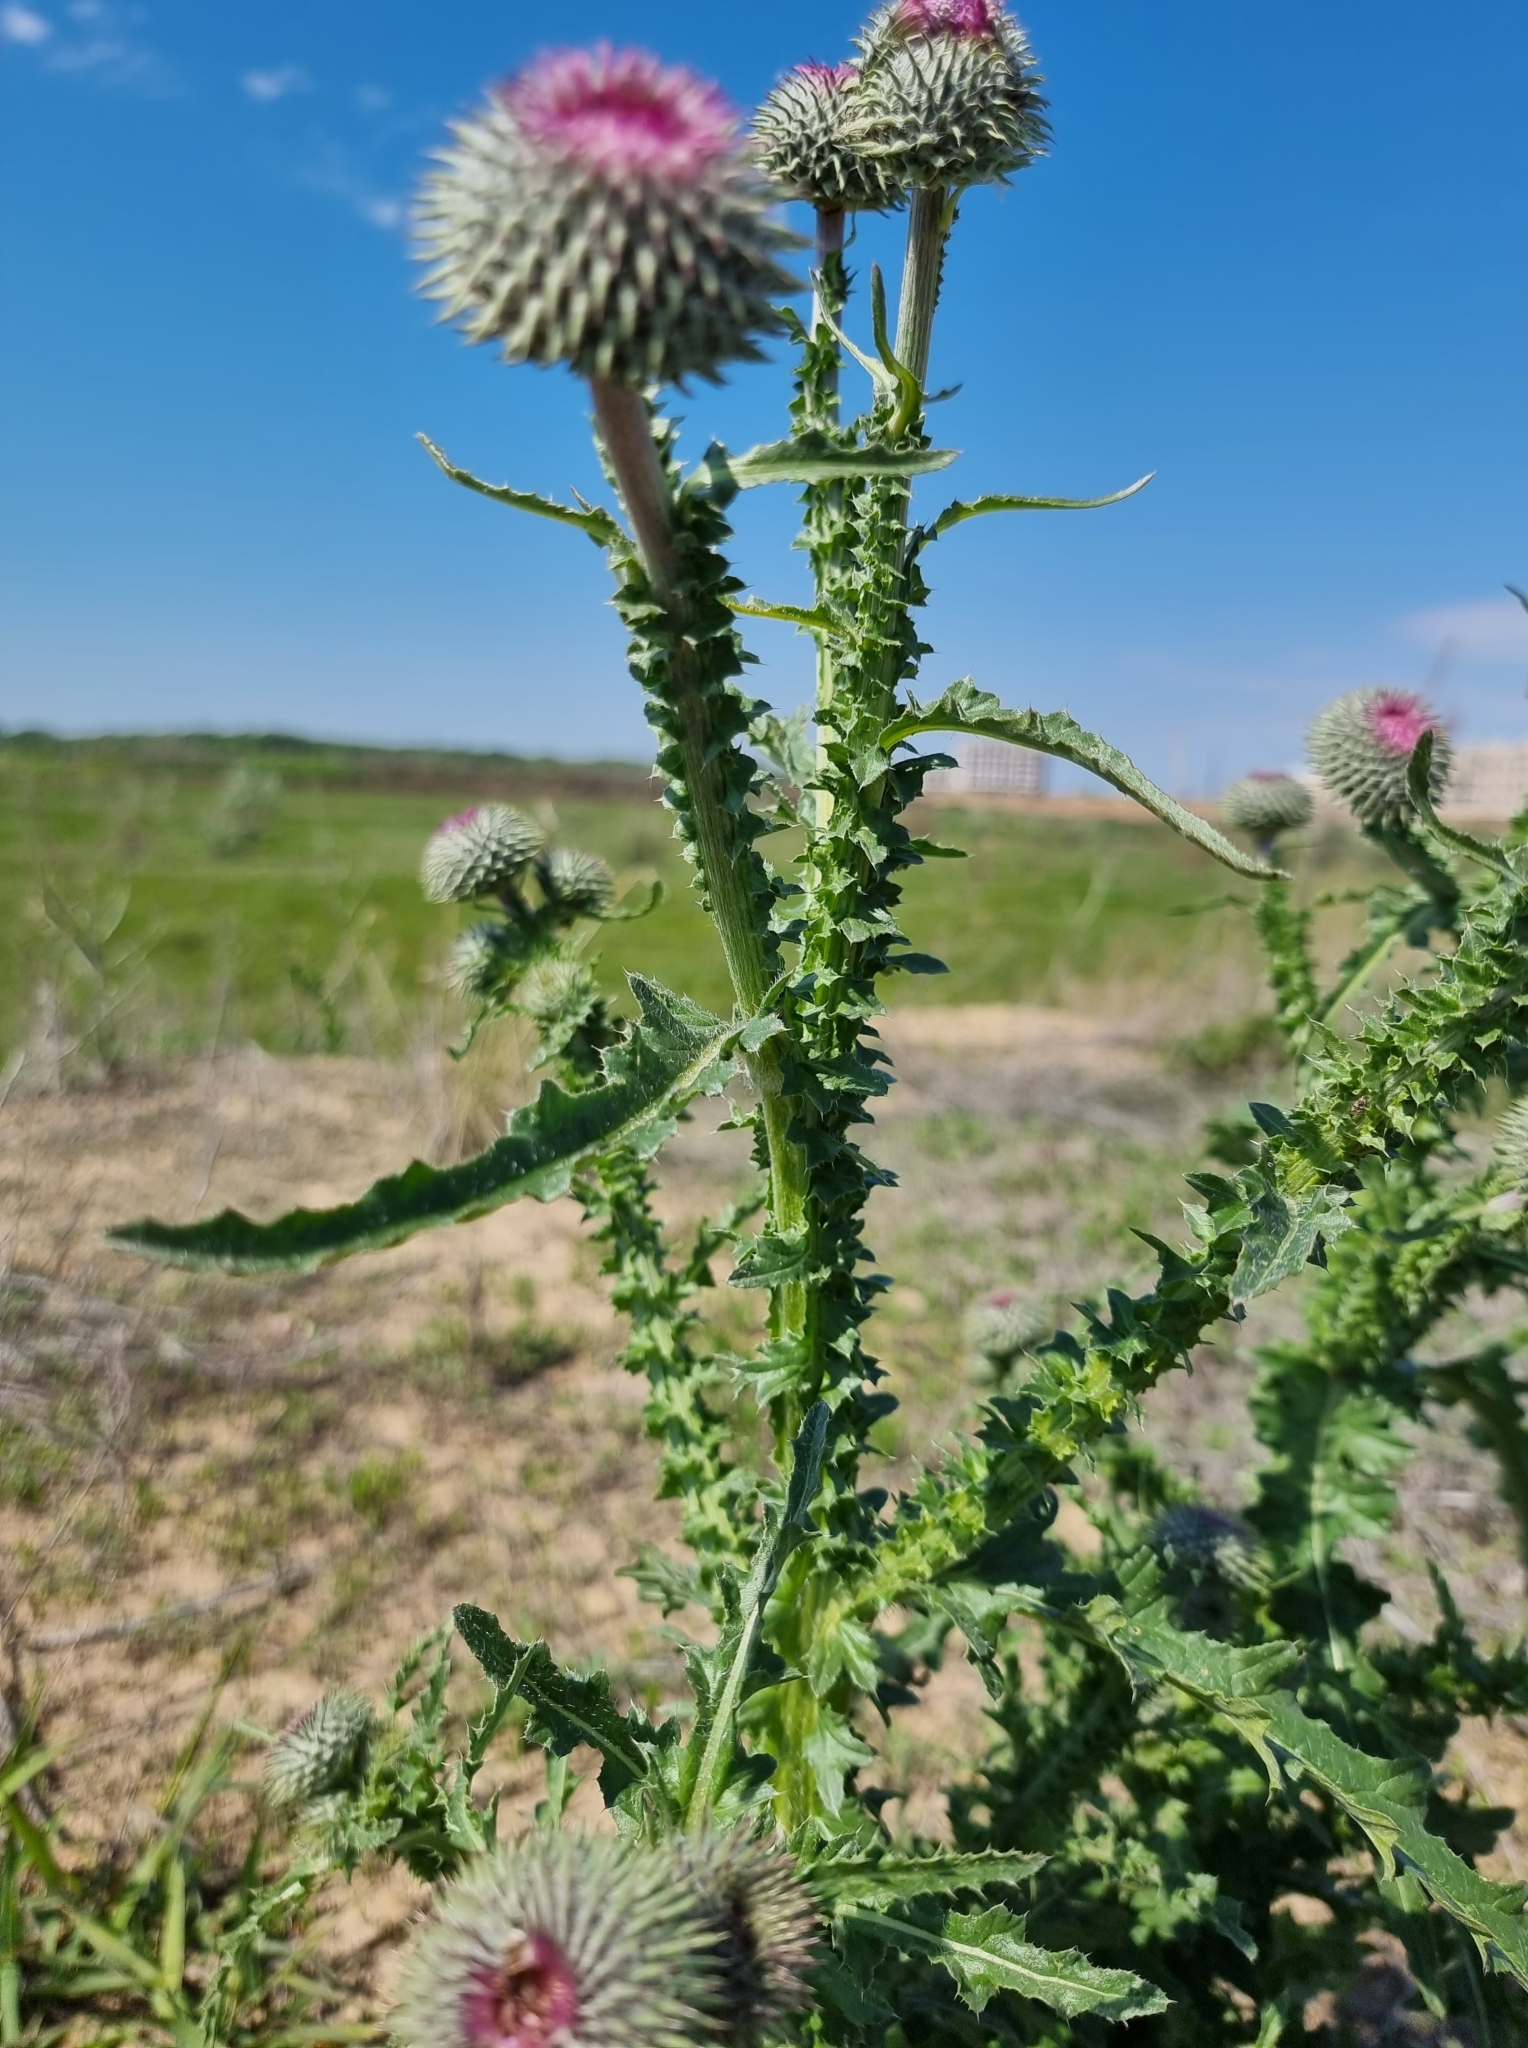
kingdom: Plantae
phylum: Tracheophyta
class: Magnoliopsida
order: Asterales
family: Asteraceae
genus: Carduus
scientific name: Carduus uncinatus
